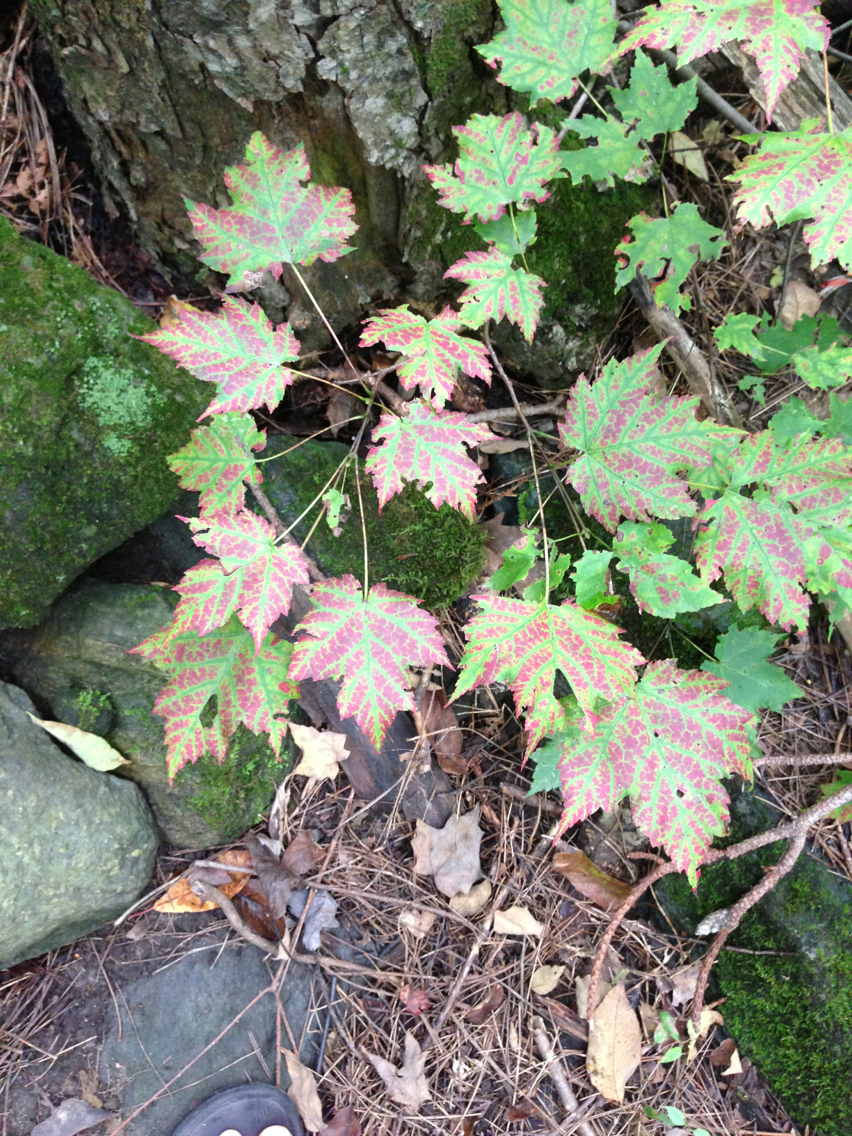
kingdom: Plantae
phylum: Tracheophyta
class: Magnoliopsida
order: Sapindales
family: Sapindaceae
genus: Acer
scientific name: Acer rubrum
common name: Red maple
